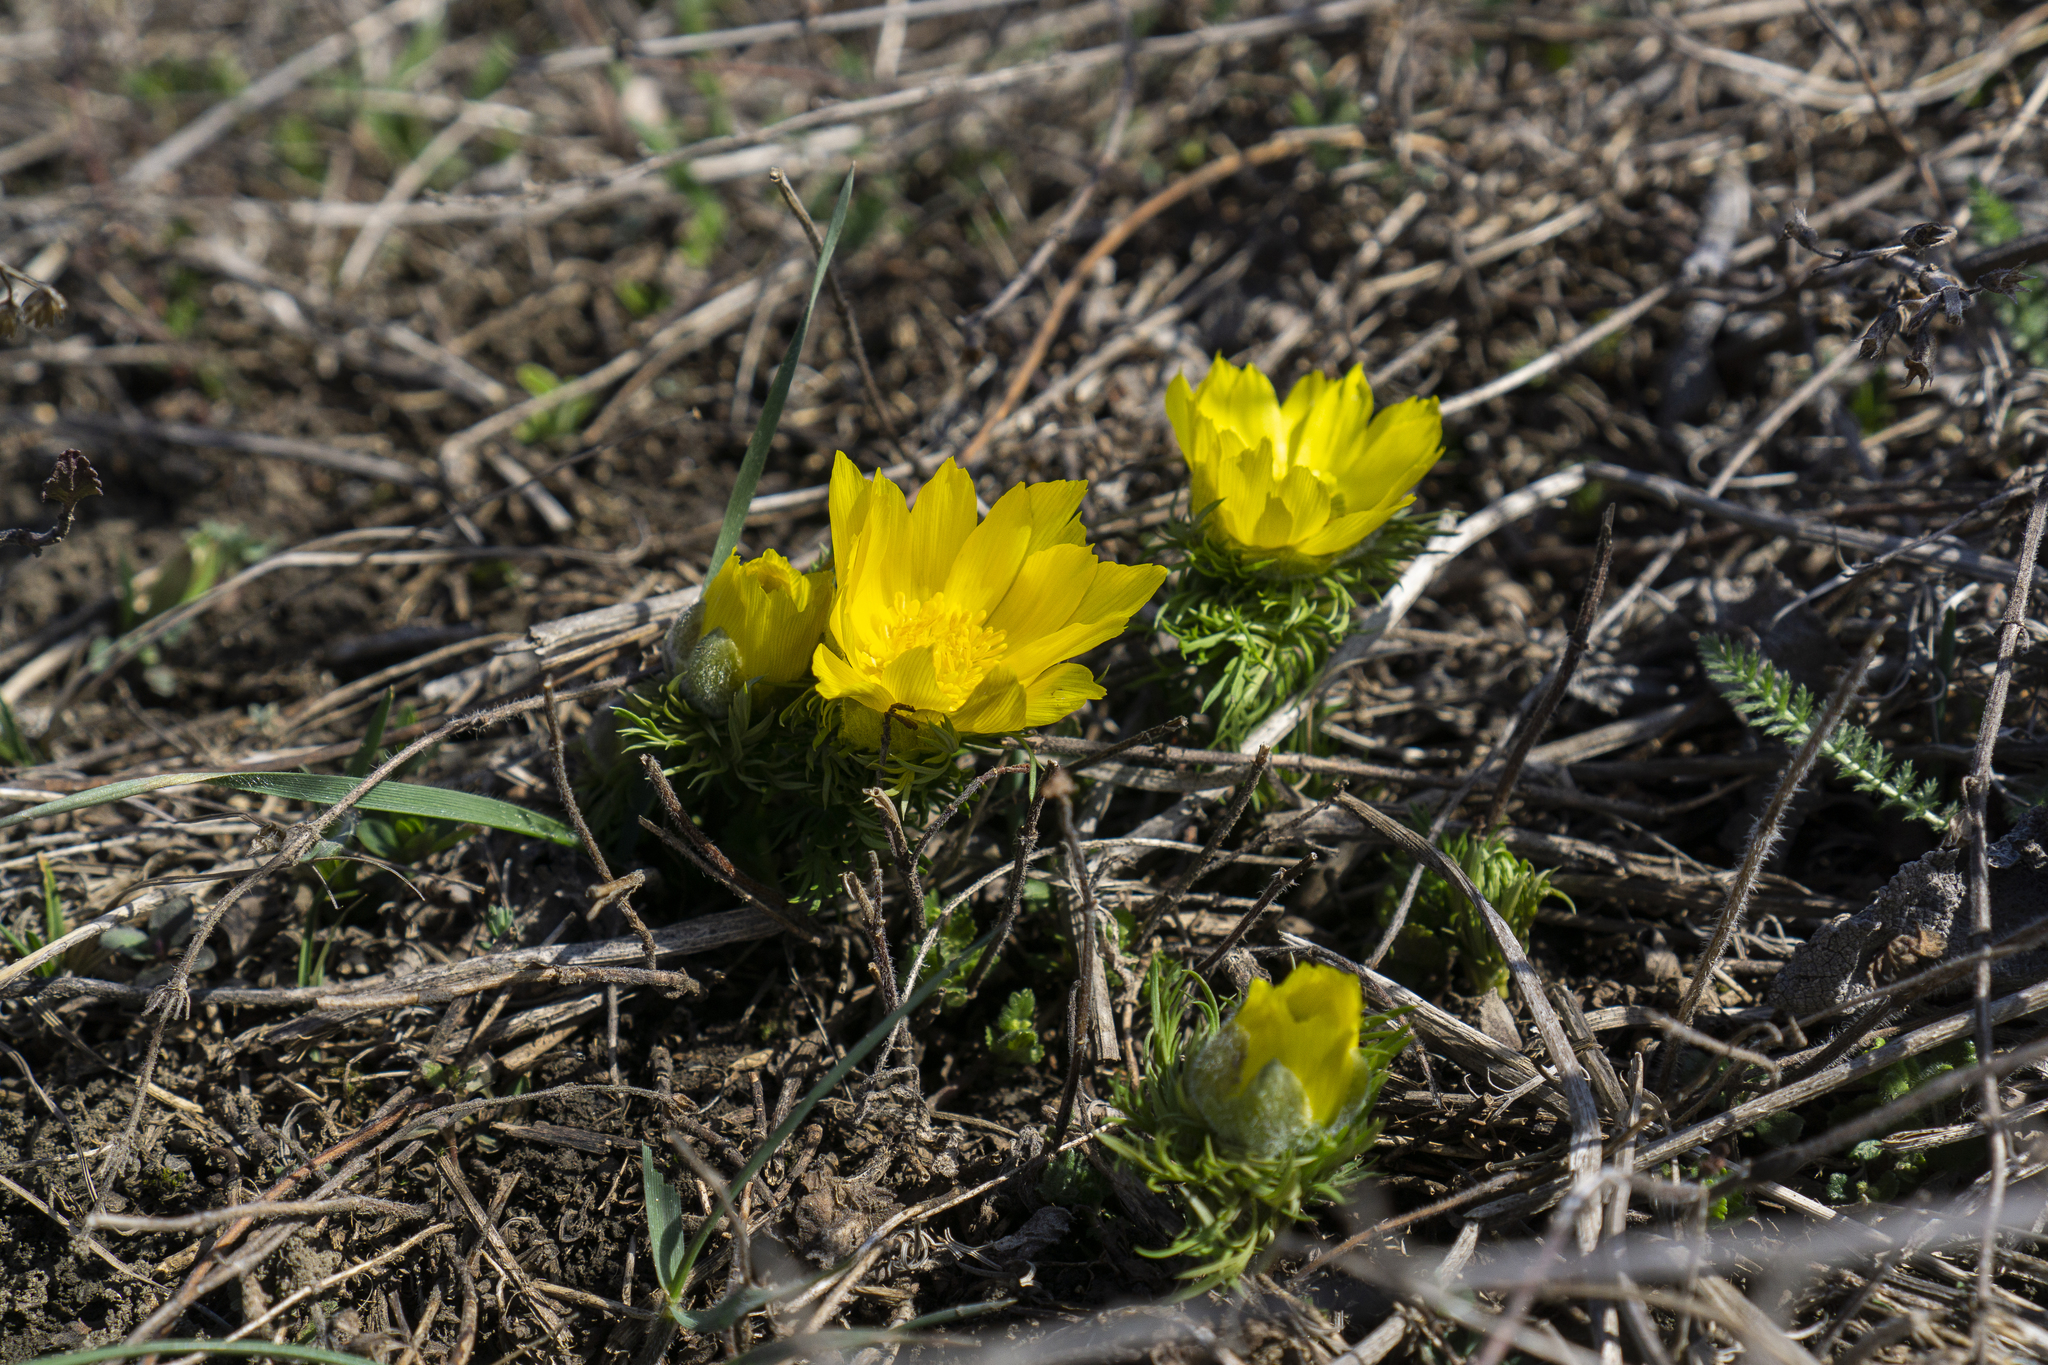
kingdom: Plantae
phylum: Tracheophyta
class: Magnoliopsida
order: Ranunculales
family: Ranunculaceae
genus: Adonis
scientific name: Adonis vernalis
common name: Yellow pheasants-eye
